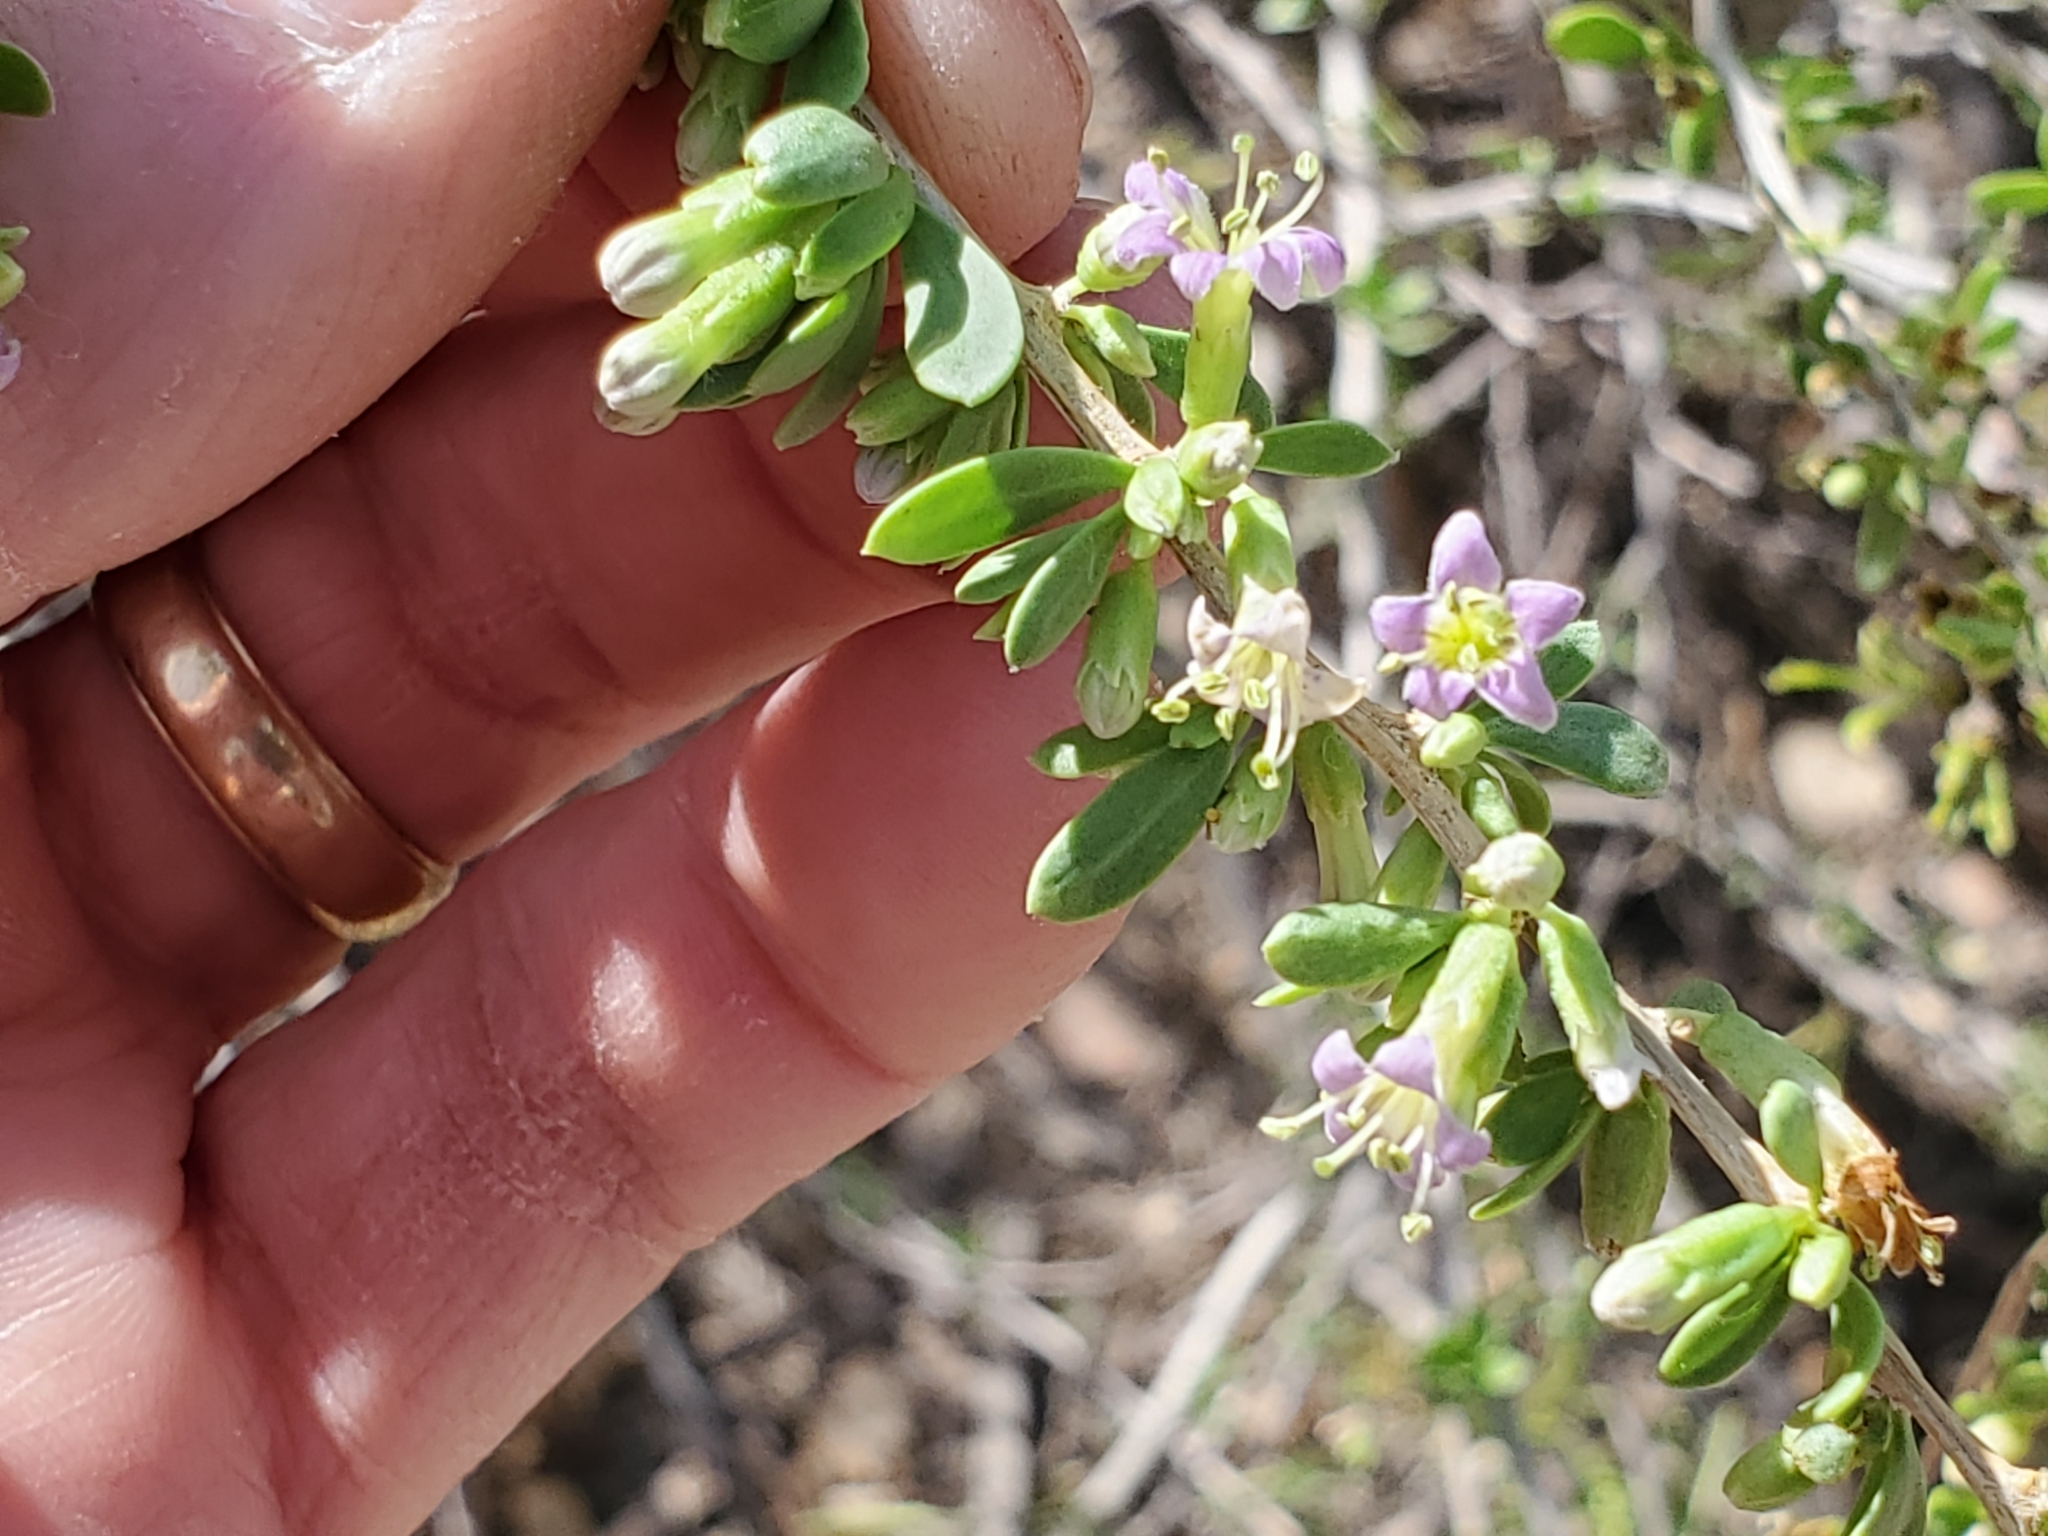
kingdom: Plantae
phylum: Tracheophyta
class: Magnoliopsida
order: Solanales
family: Solanaceae
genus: Lycium
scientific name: Lycium torreyi
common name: Torrey's lycium
